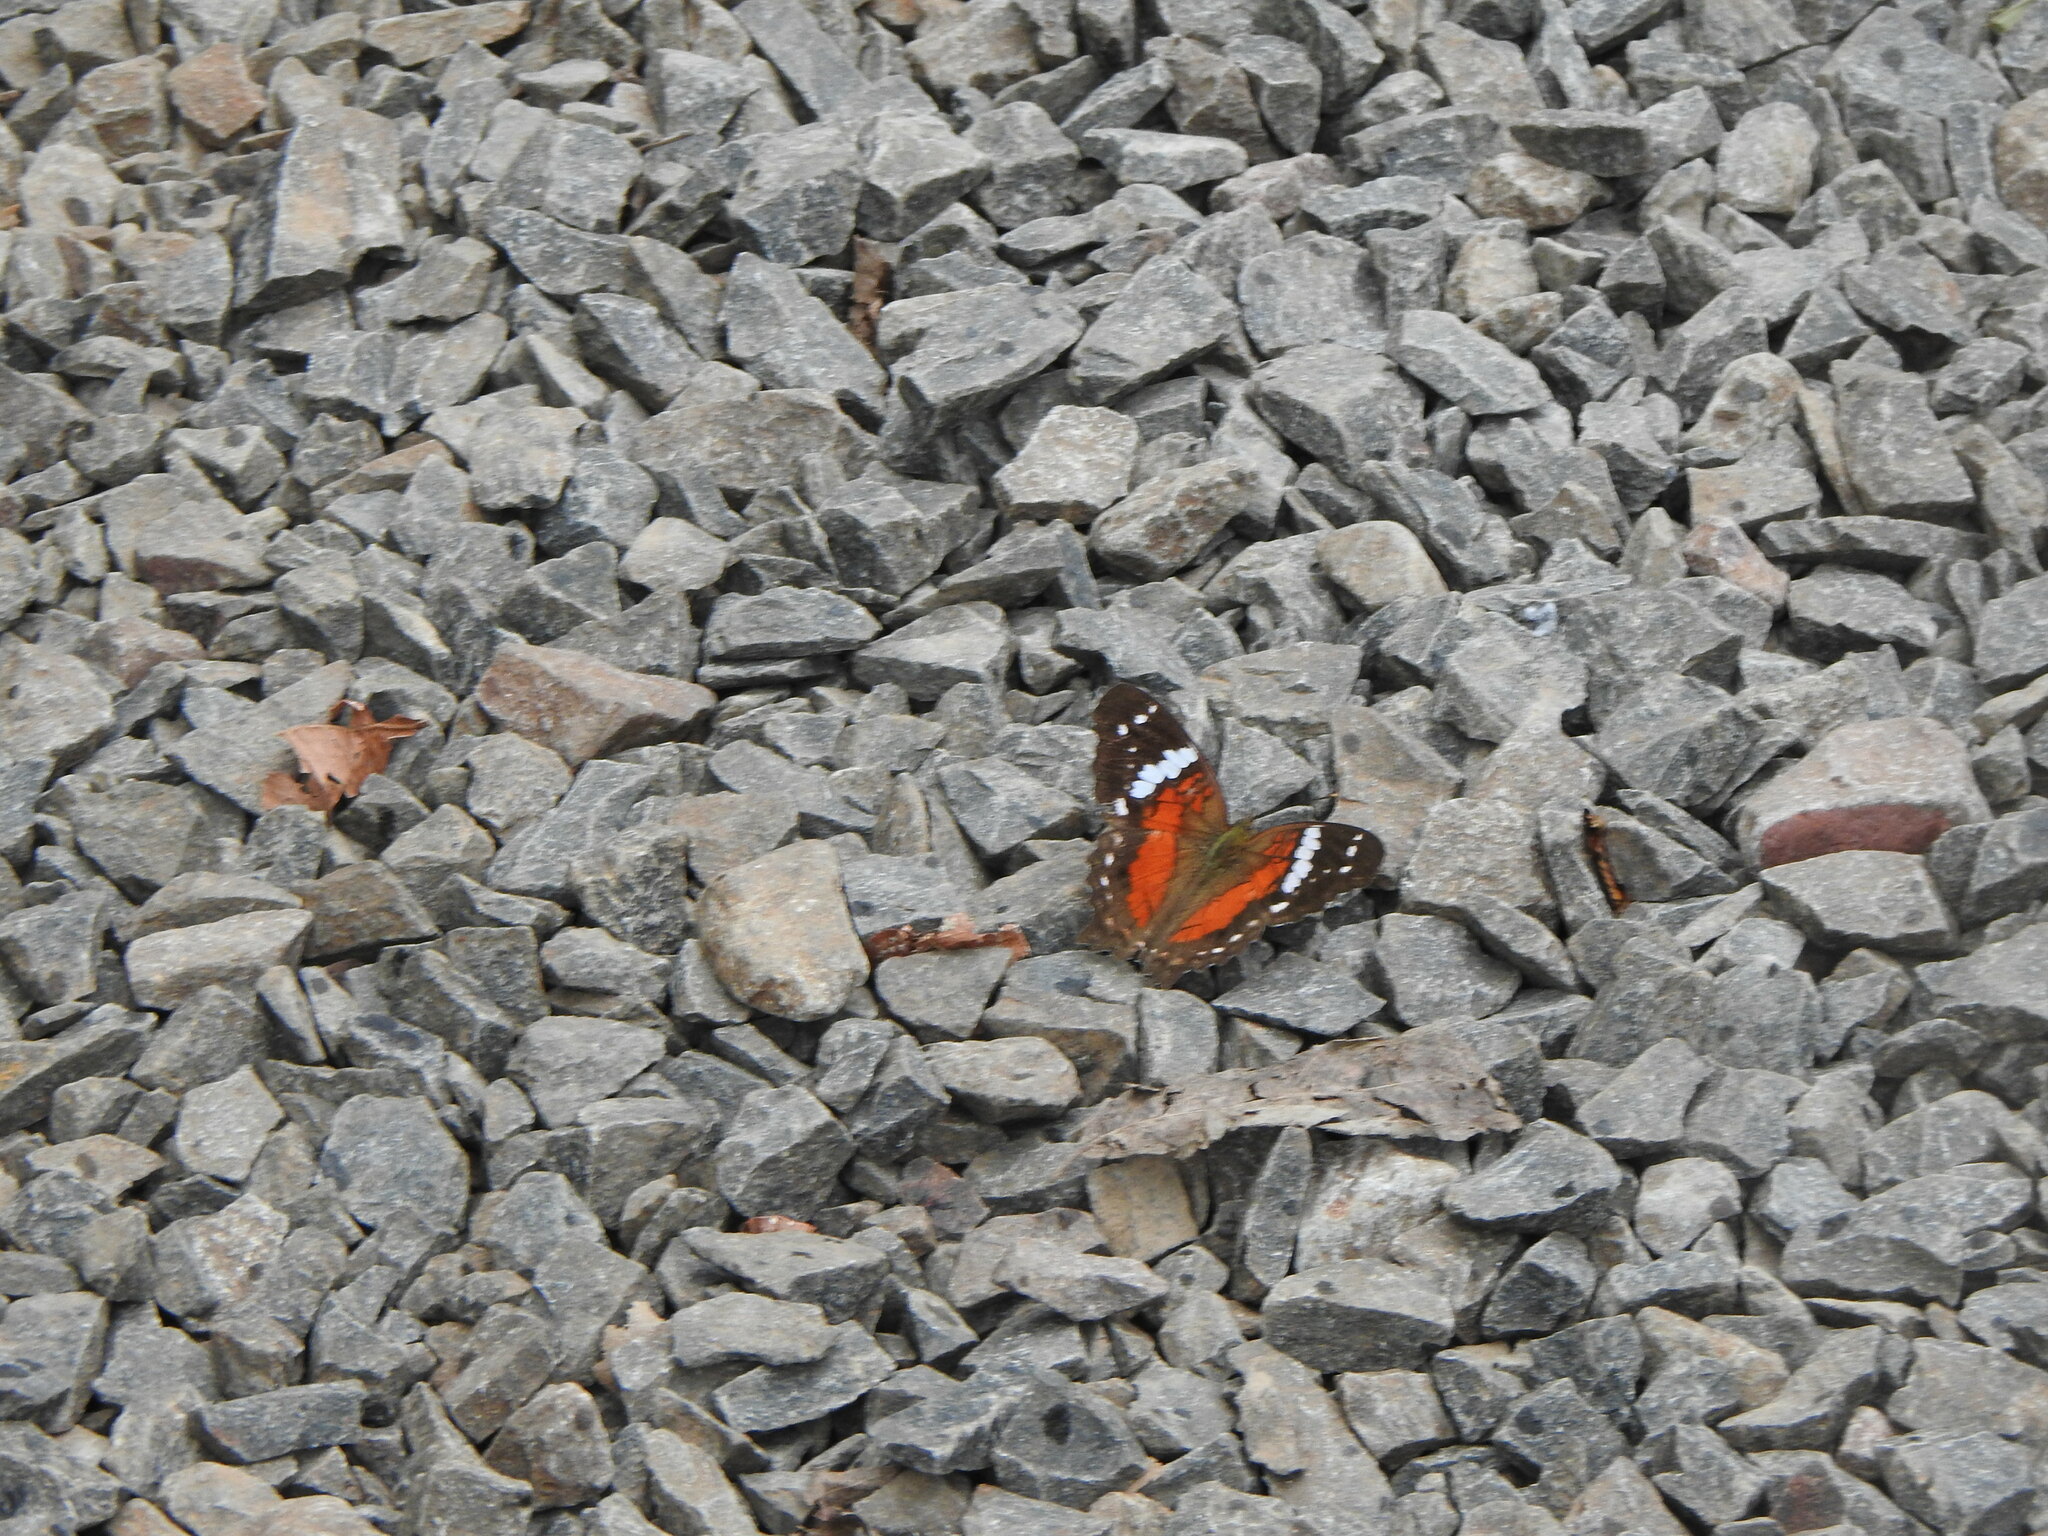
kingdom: Animalia
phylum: Arthropoda
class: Insecta
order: Lepidoptera
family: Nymphalidae
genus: Anartia
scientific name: Anartia amathea
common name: Red peacock
